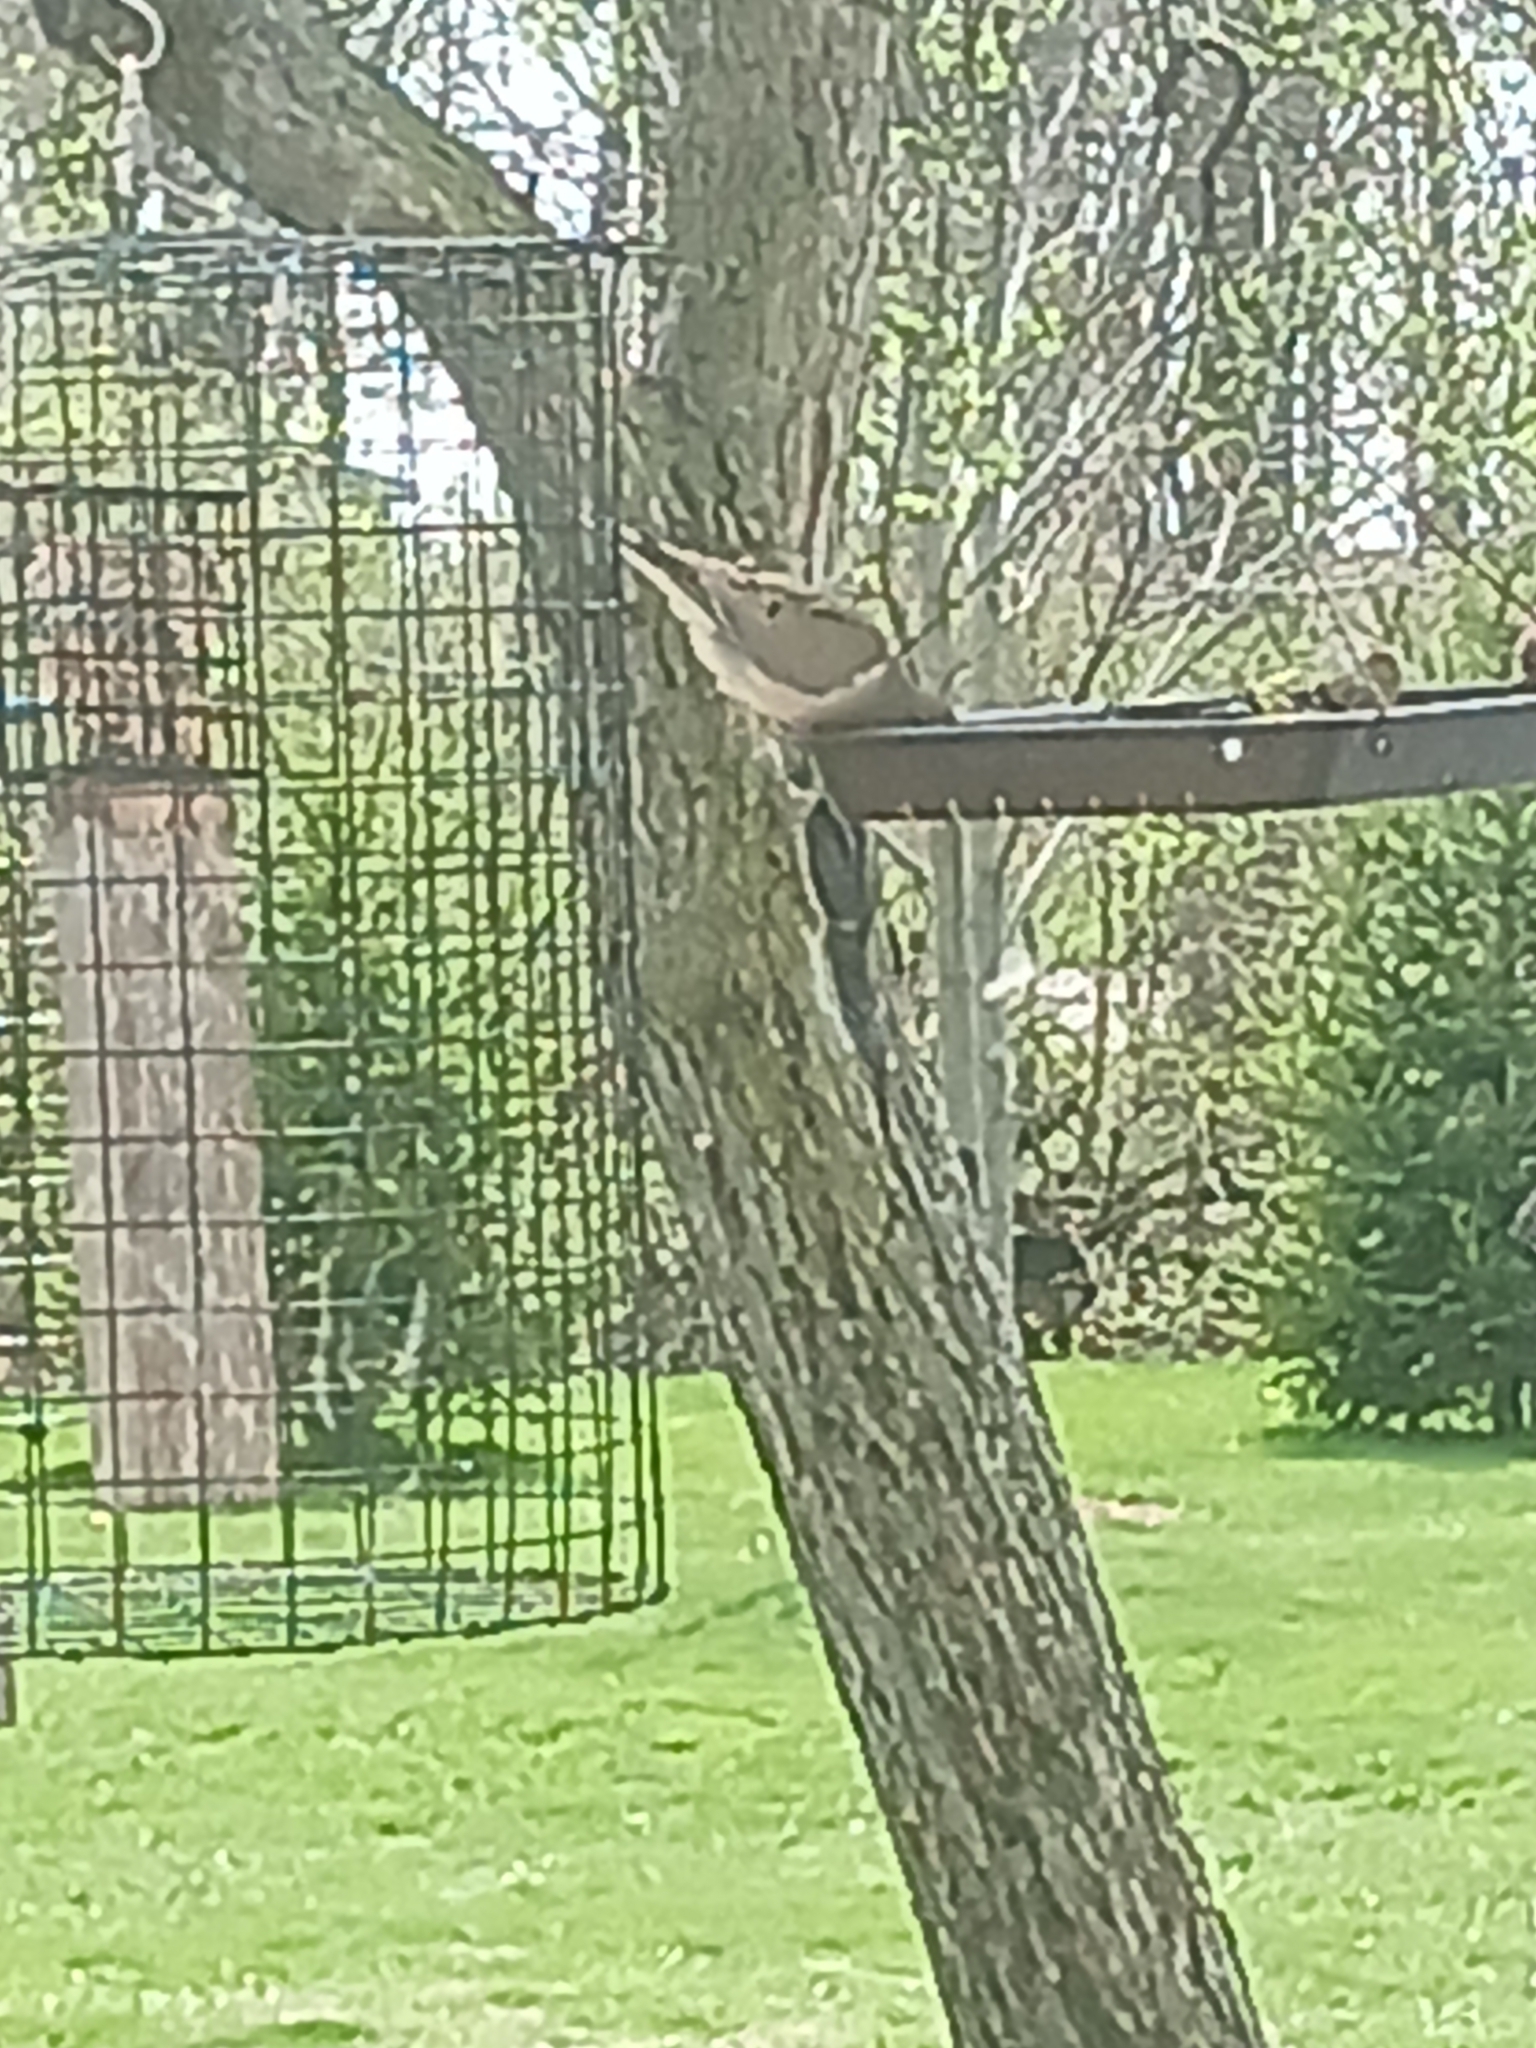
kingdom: Animalia
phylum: Chordata
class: Aves
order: Columbiformes
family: Columbidae
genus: Zenaida
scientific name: Zenaida macroura
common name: Mourning dove
